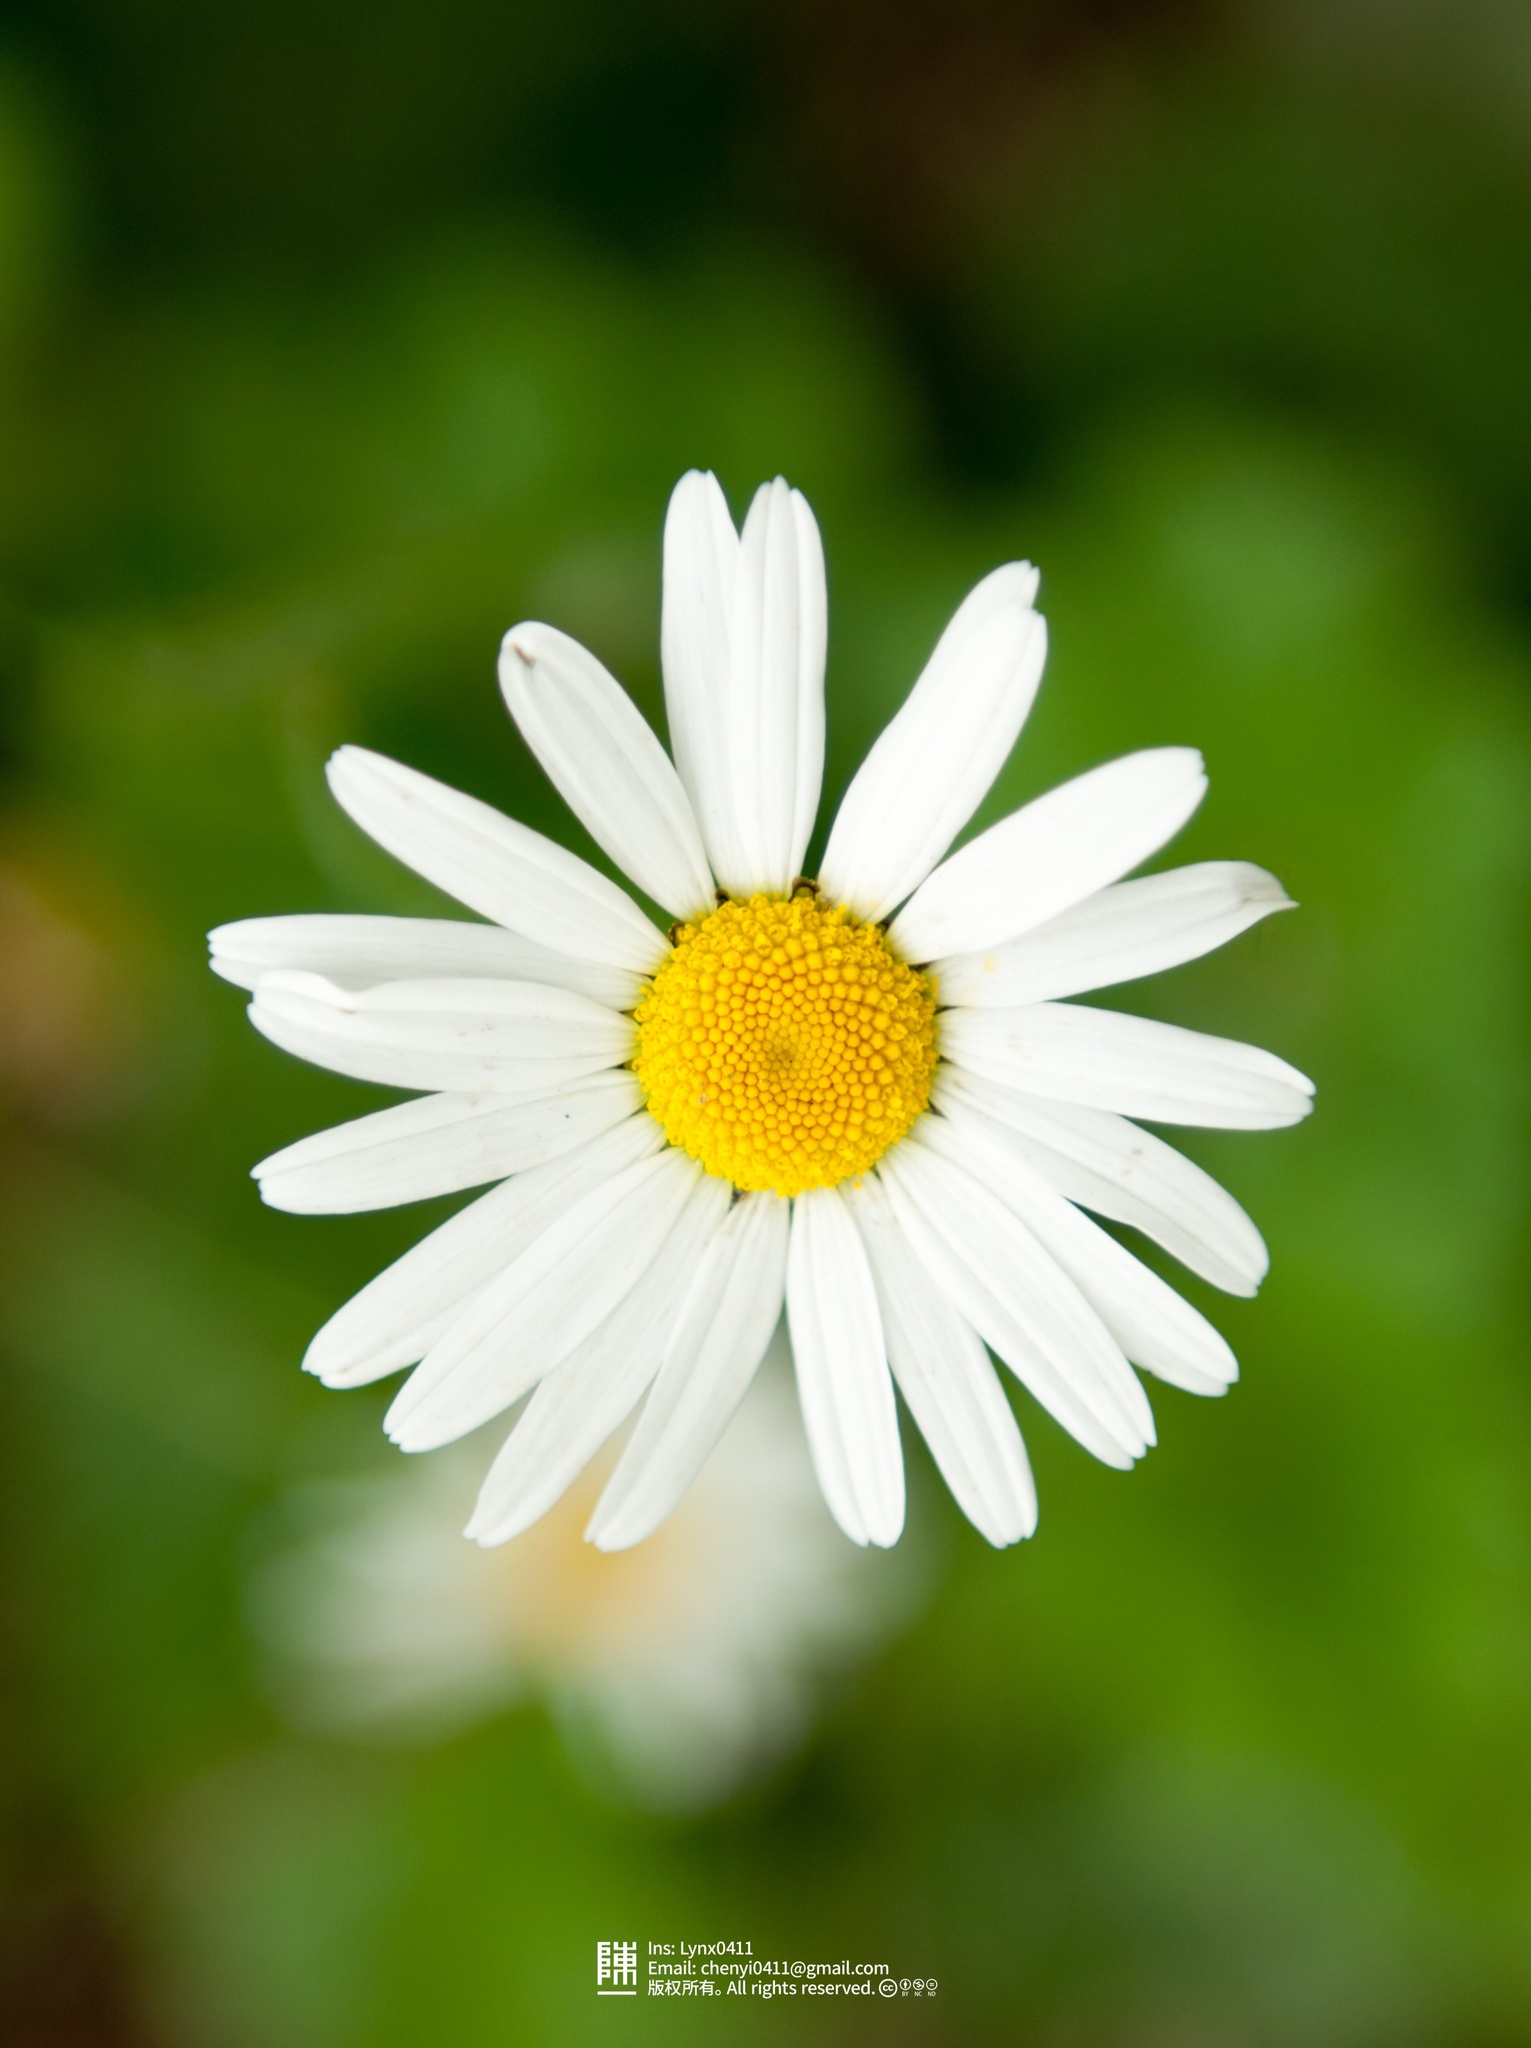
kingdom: Plantae
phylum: Tracheophyta
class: Magnoliopsida
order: Asterales
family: Asteraceae
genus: Leucanthemum
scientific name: Leucanthemum vulgare
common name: Oxeye daisy
